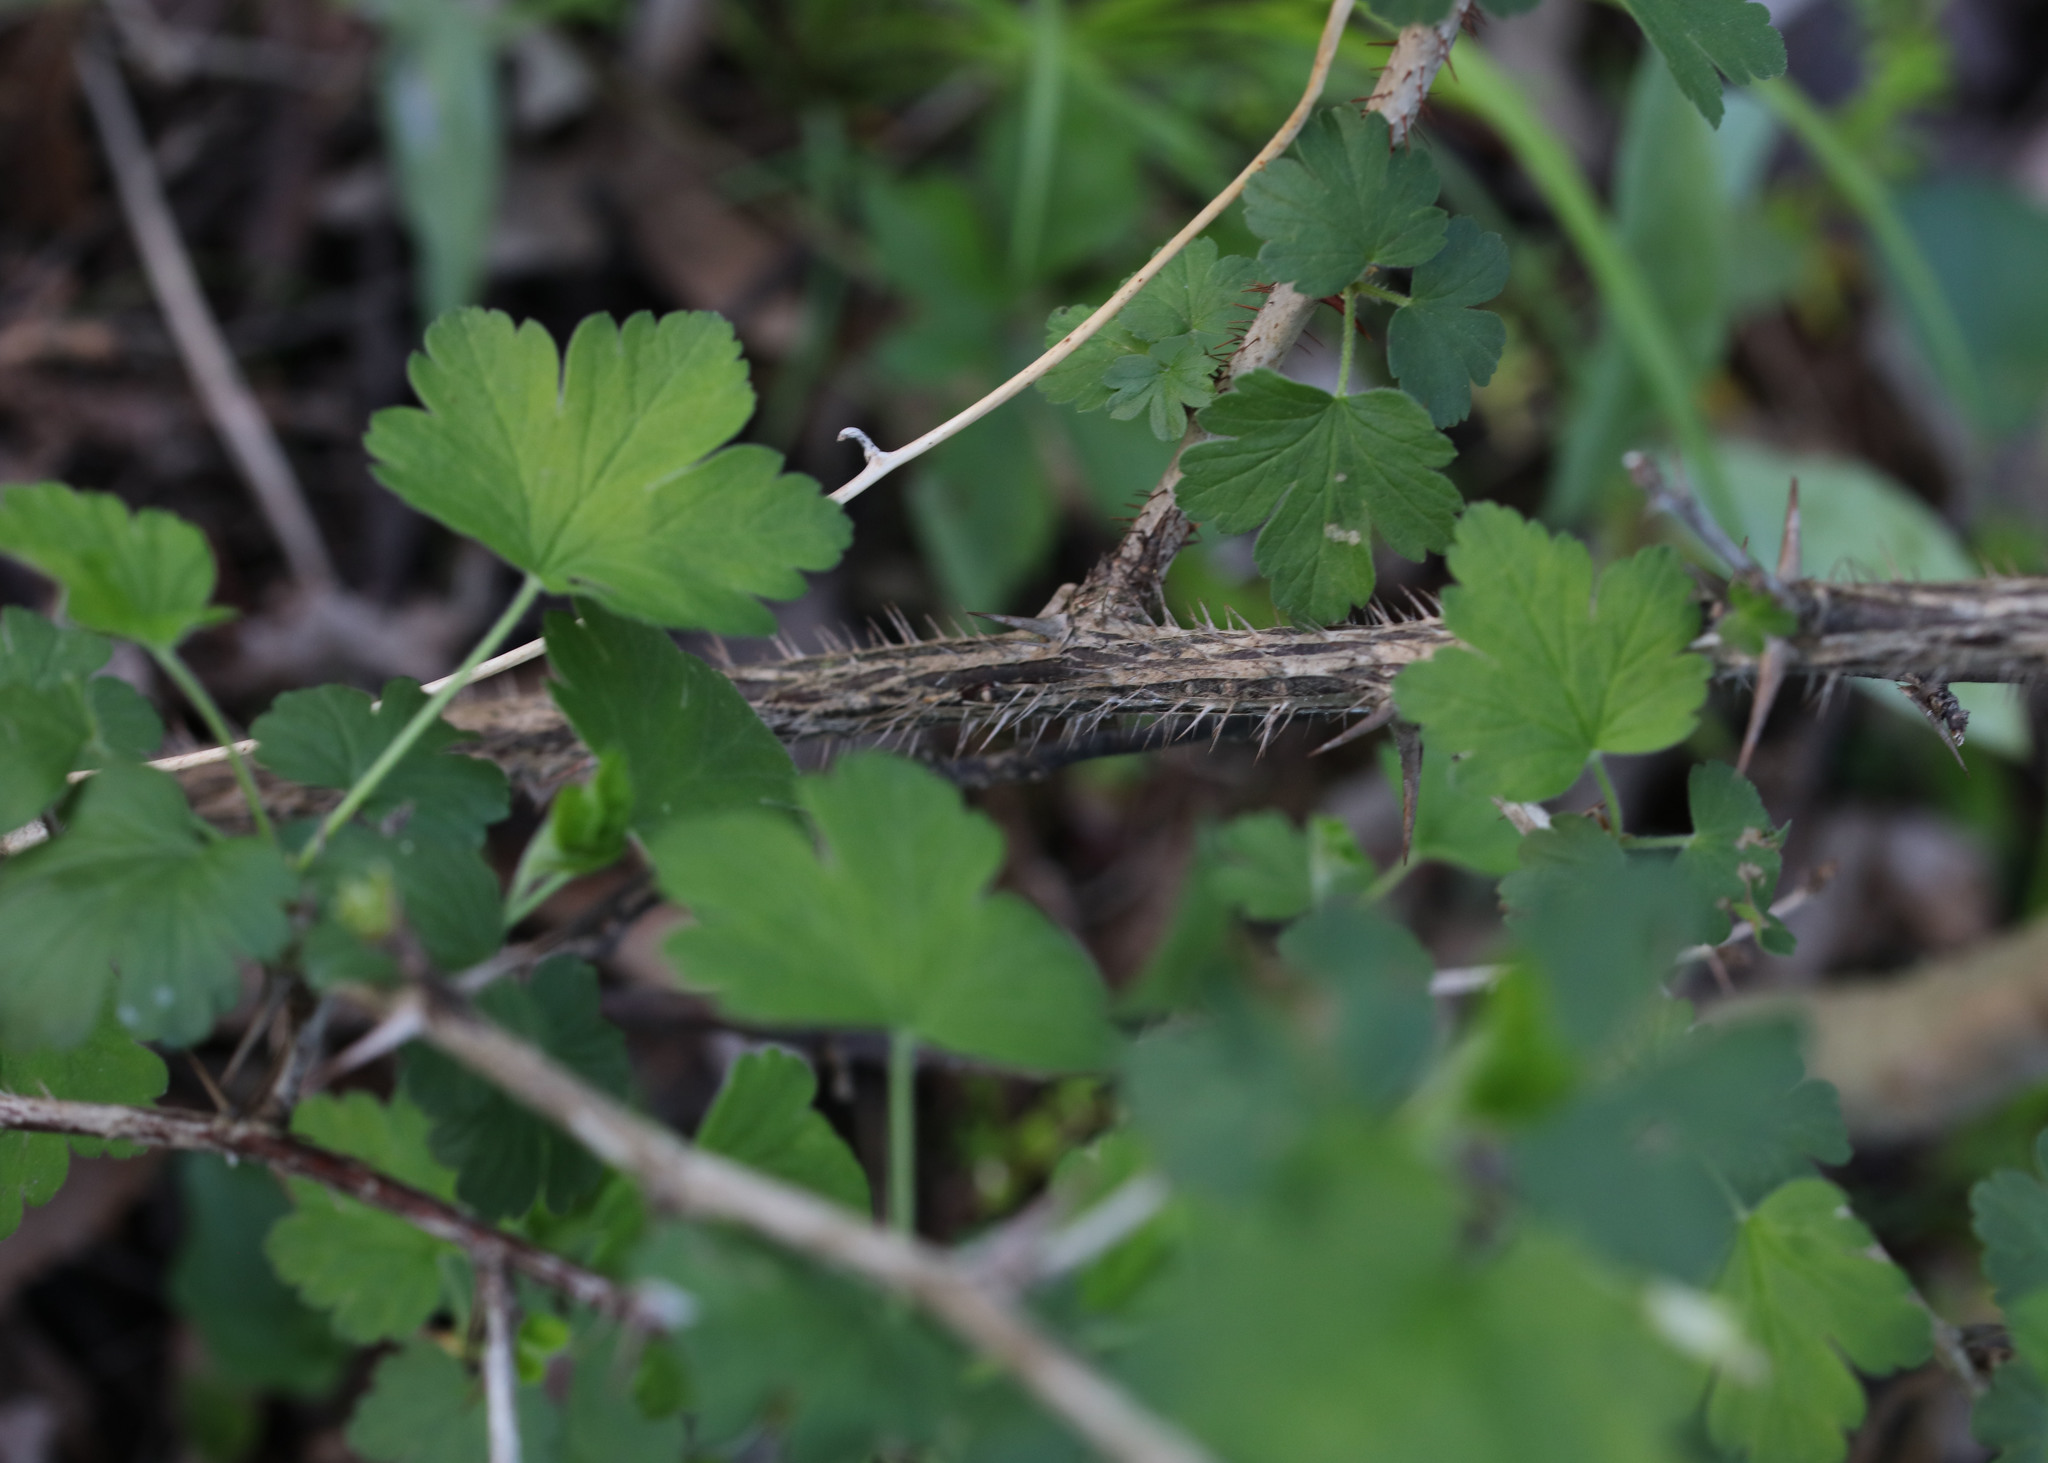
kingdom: Plantae
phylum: Tracheophyta
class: Magnoliopsida
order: Saxifragales
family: Grossulariaceae
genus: Ribes
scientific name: Ribes missouriense
